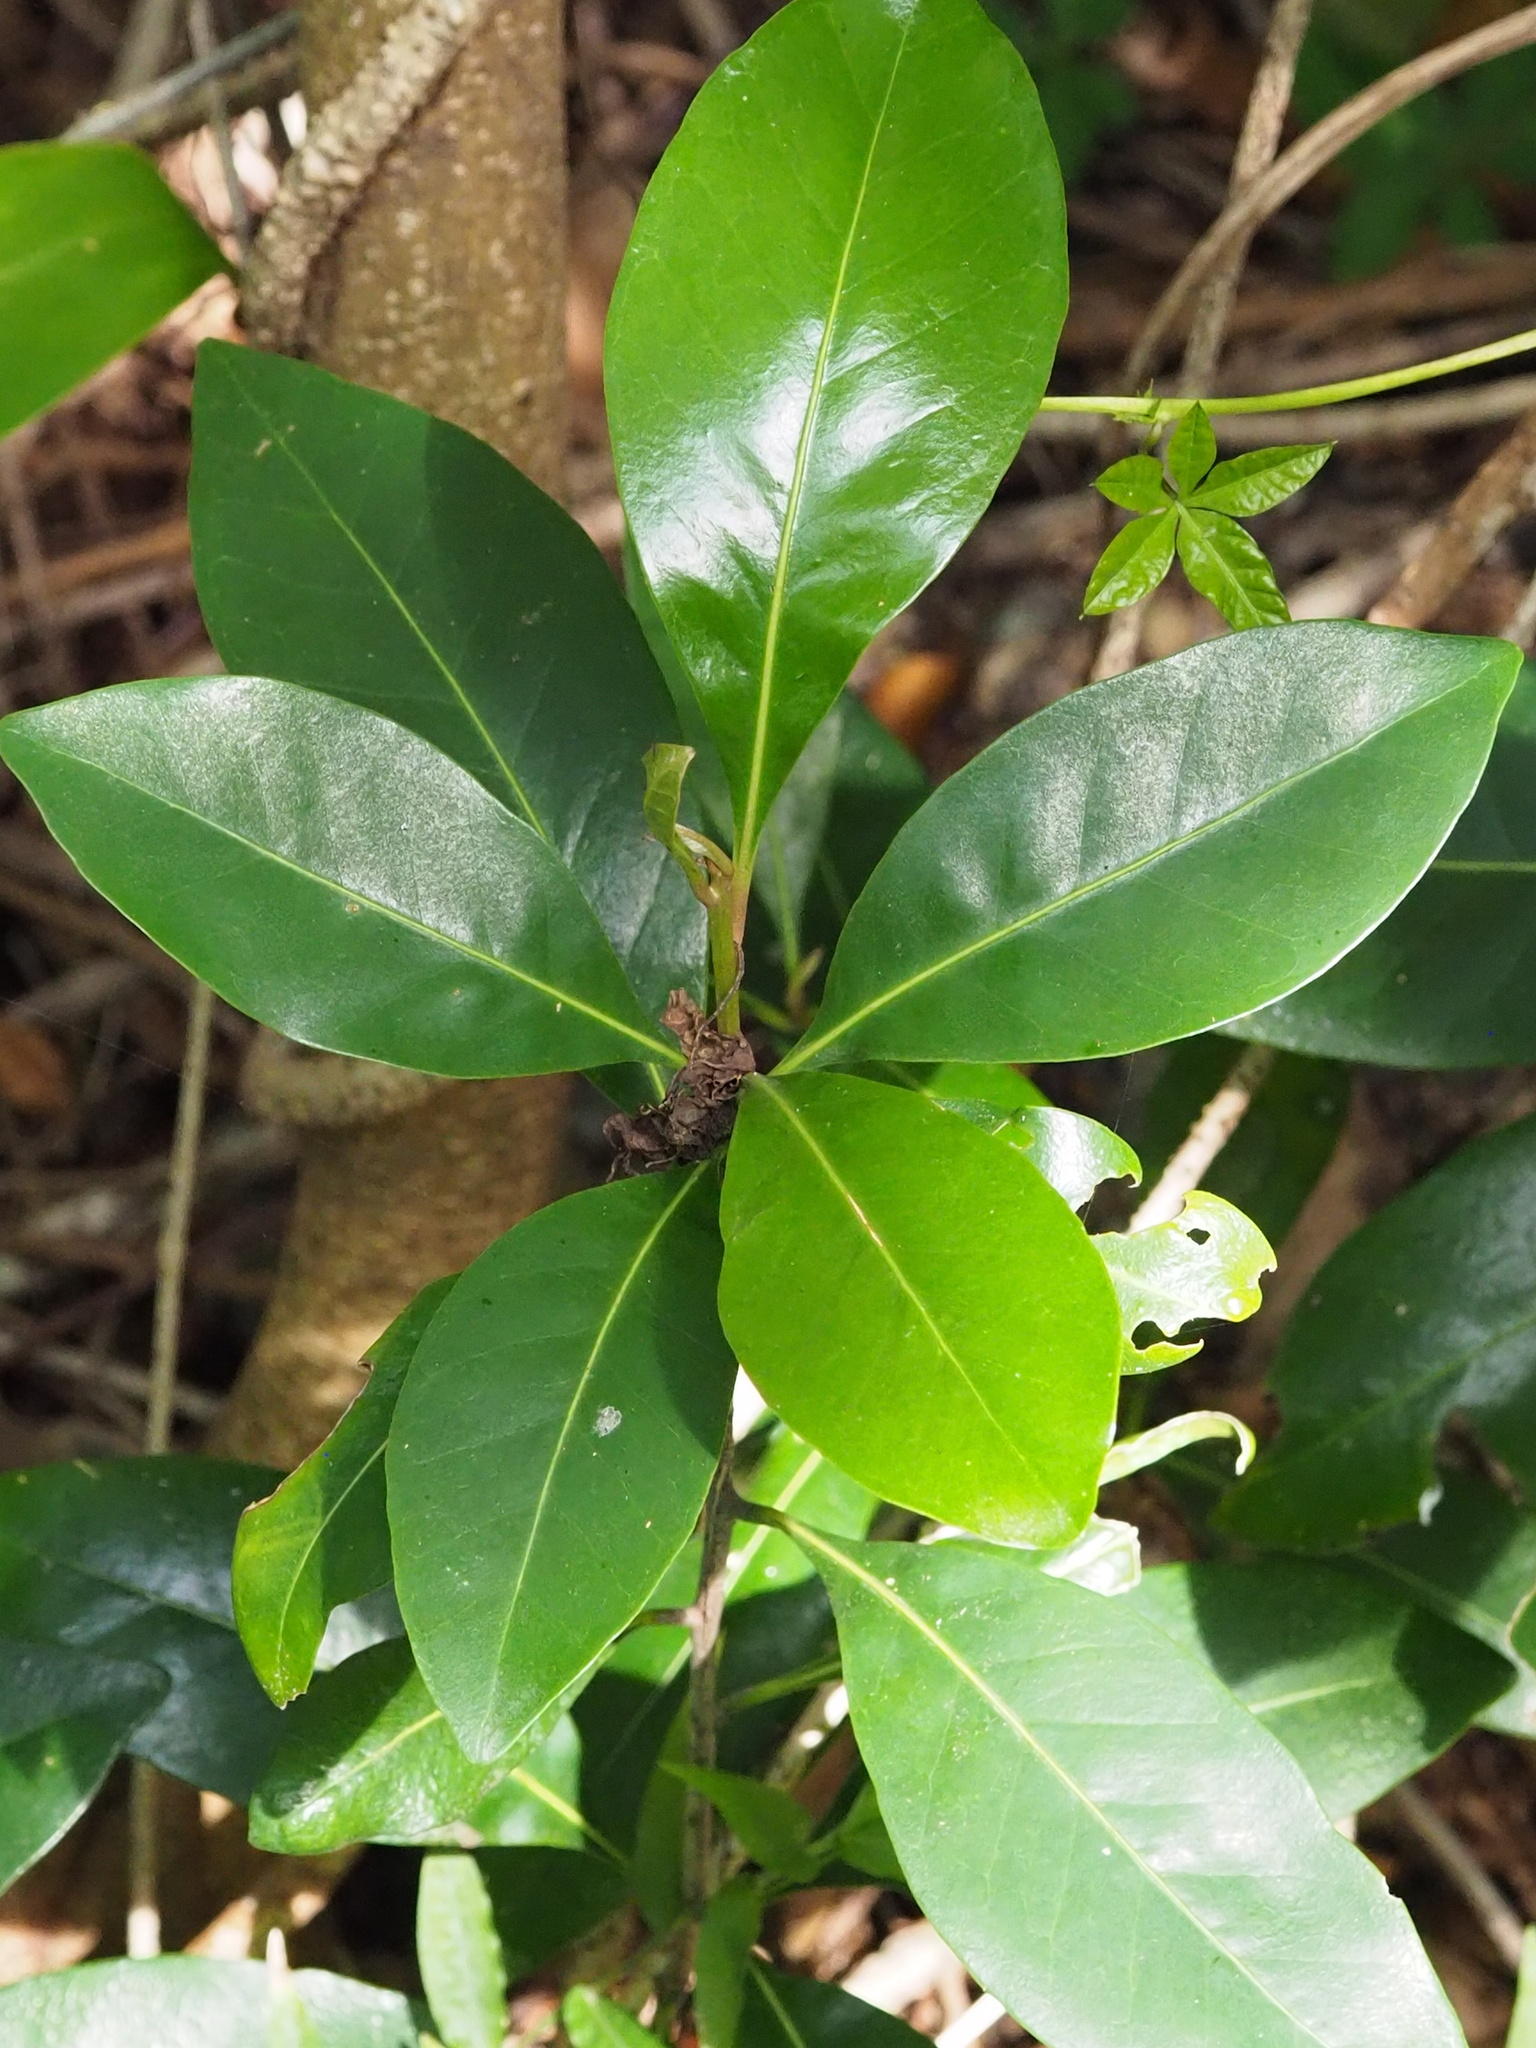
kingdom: Plantae
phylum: Tracheophyta
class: Magnoliopsida
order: Ericales
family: Sapotaceae
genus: Planchonella
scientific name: Planchonella obovata
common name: Black-ash
